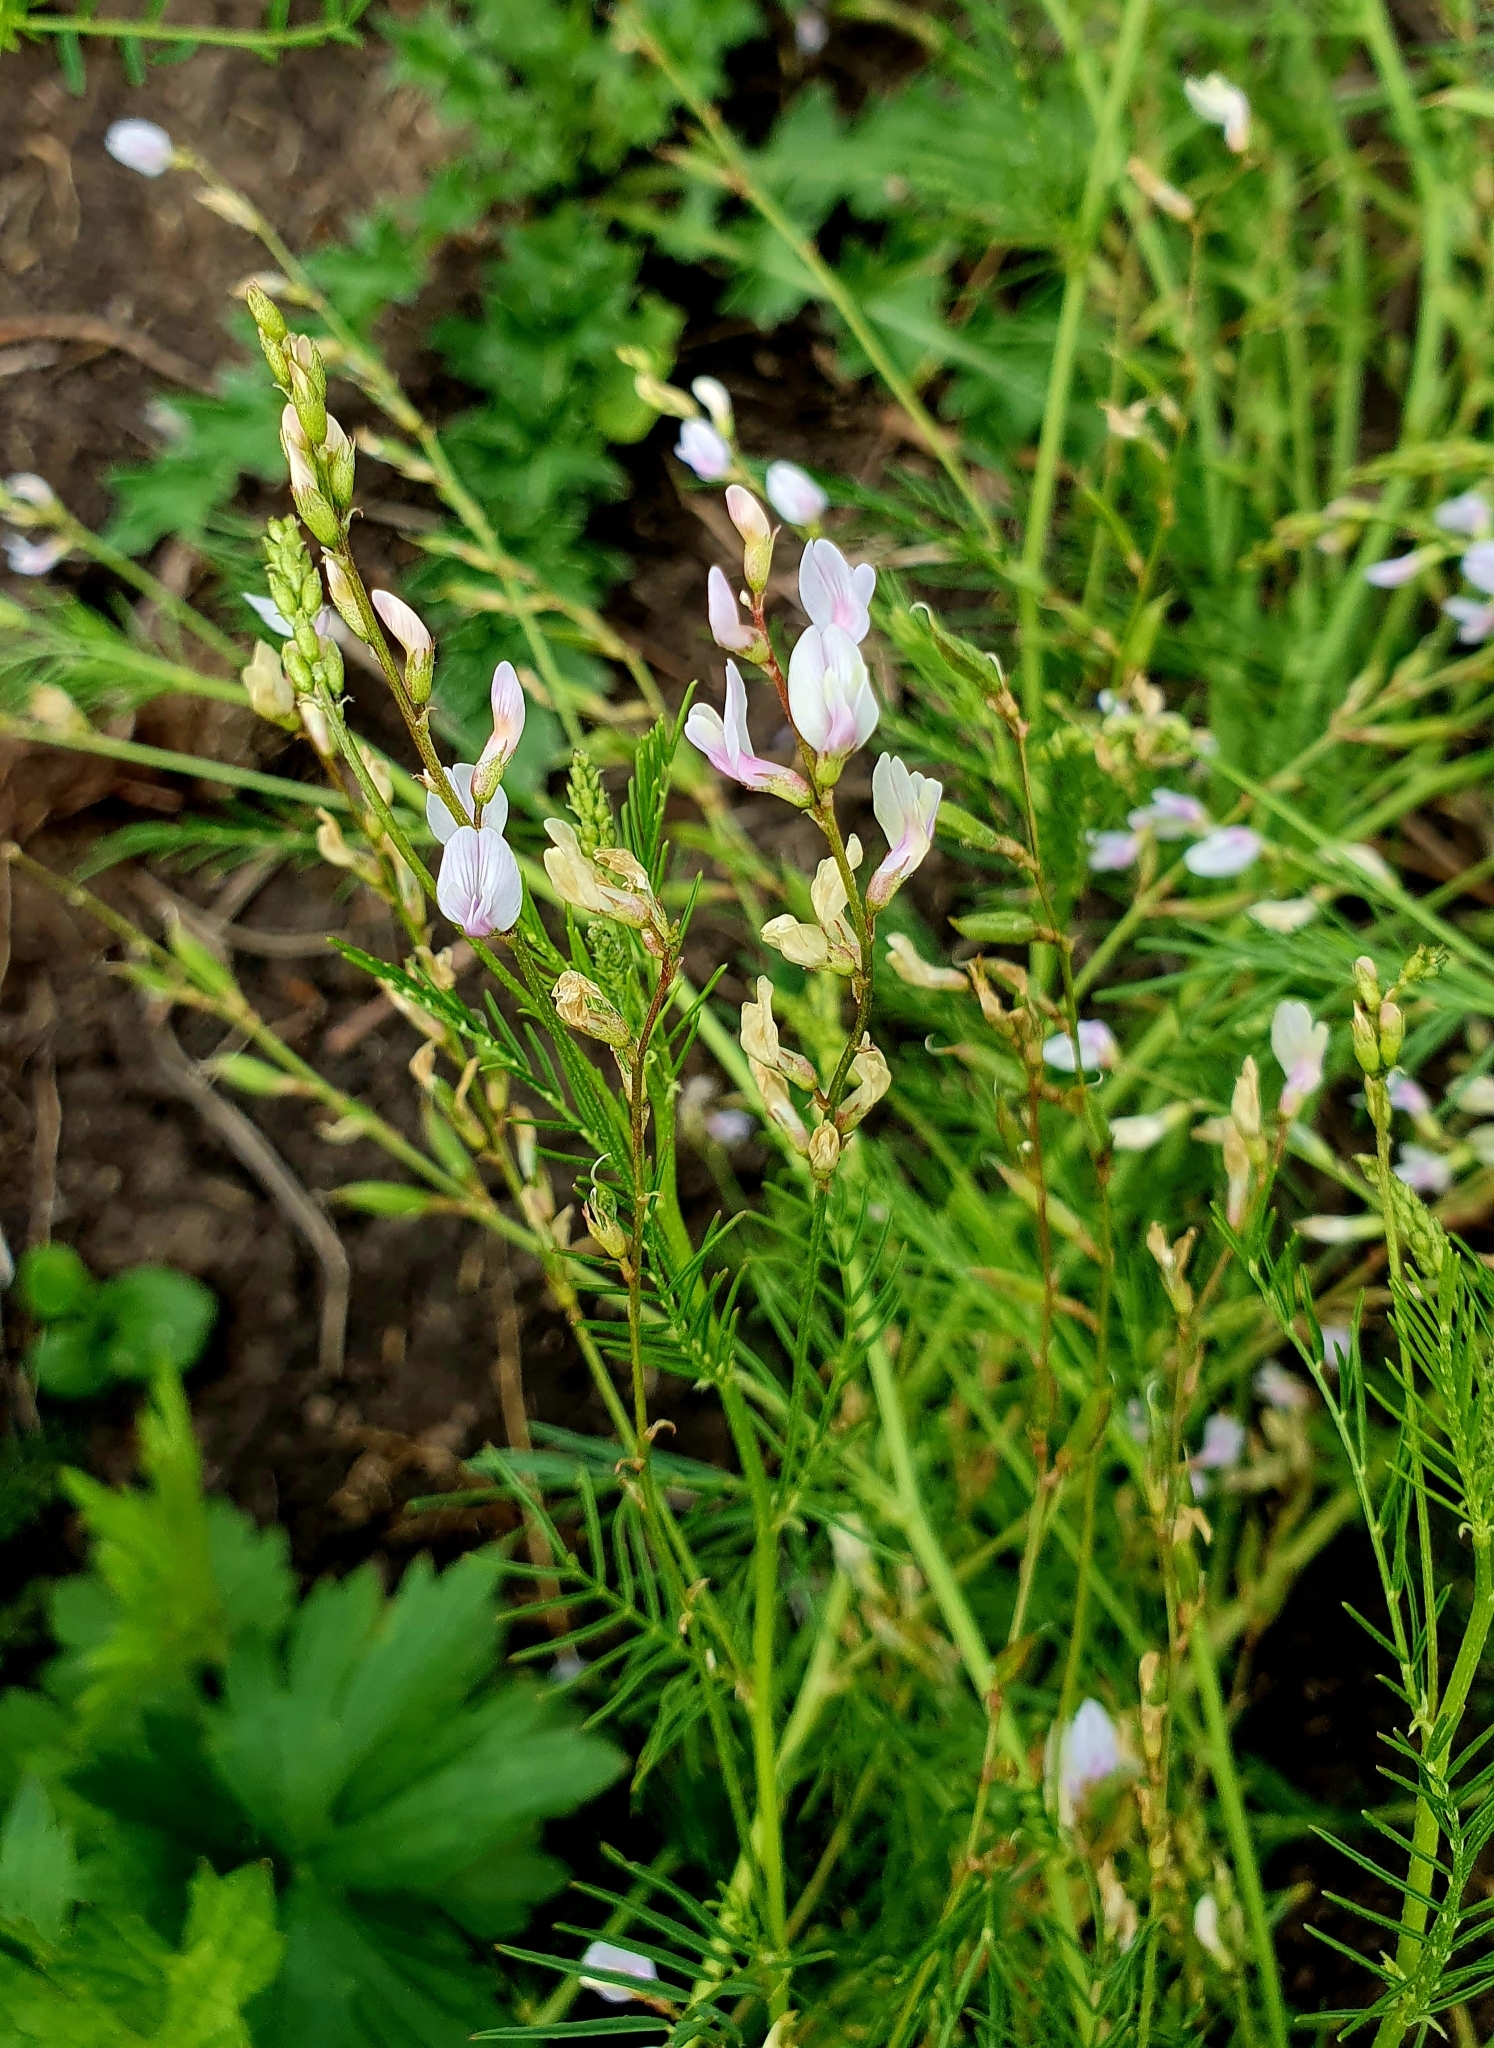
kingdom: Plantae
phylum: Tracheophyta
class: Magnoliopsida
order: Fabales
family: Fabaceae
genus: Astragalus
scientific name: Astragalus sulcatus
